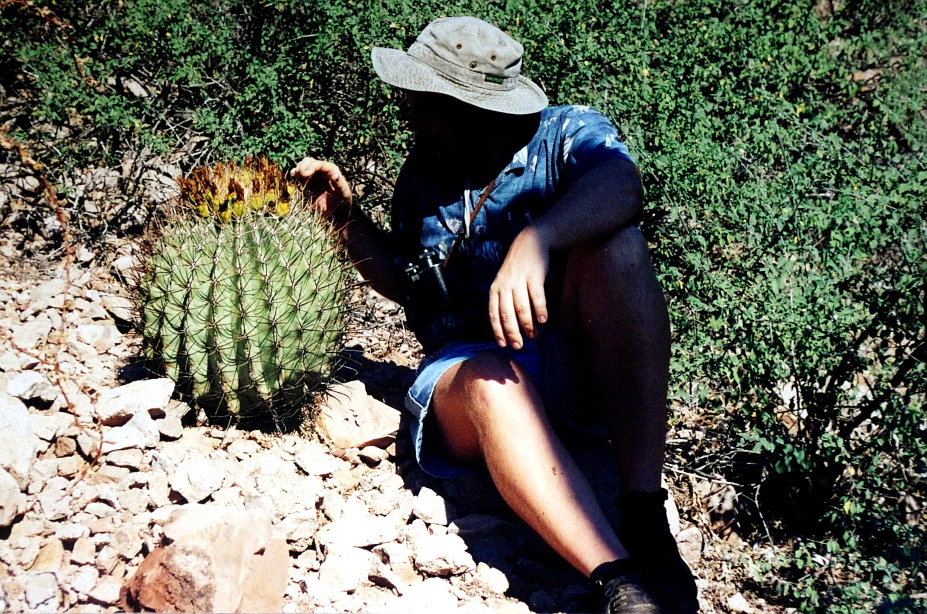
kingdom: Plantae
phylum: Tracheophyta
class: Magnoliopsida
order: Caryophyllales
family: Cactaceae
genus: Ferocactus
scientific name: Ferocactus emoryi
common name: Emory's barrel cactus
